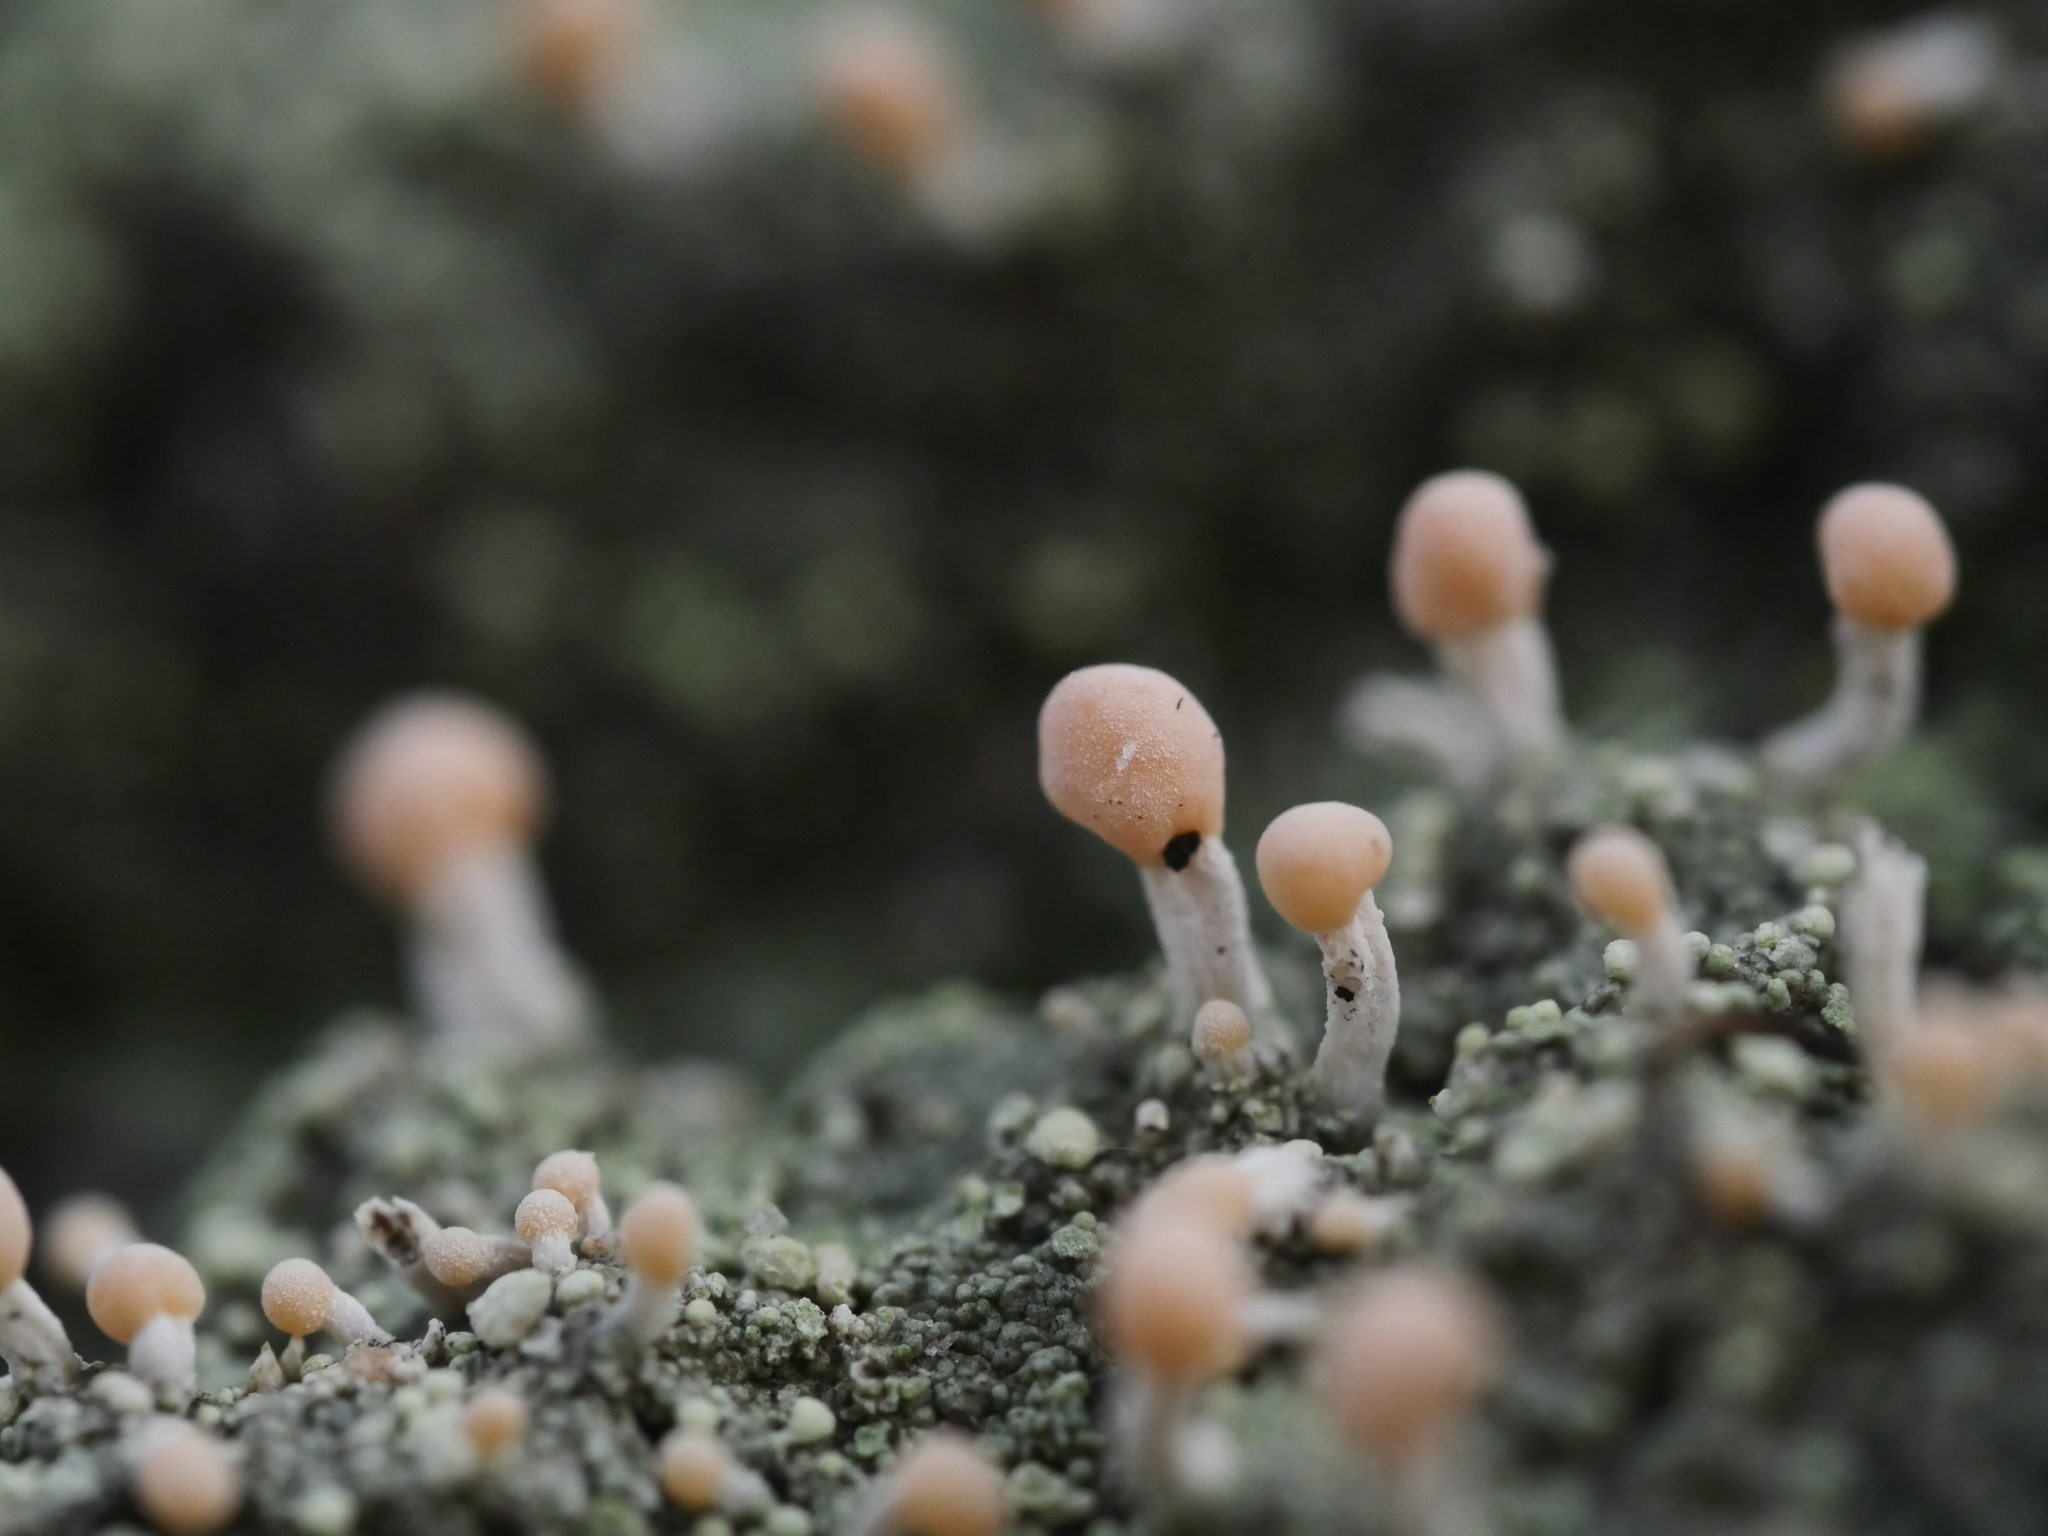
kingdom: Fungi
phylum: Ascomycota
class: Lecanoromycetes
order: Pertusariales
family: Icmadophilaceae
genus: Dibaeis
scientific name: Dibaeis baeomyces
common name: Pink earth lichen
